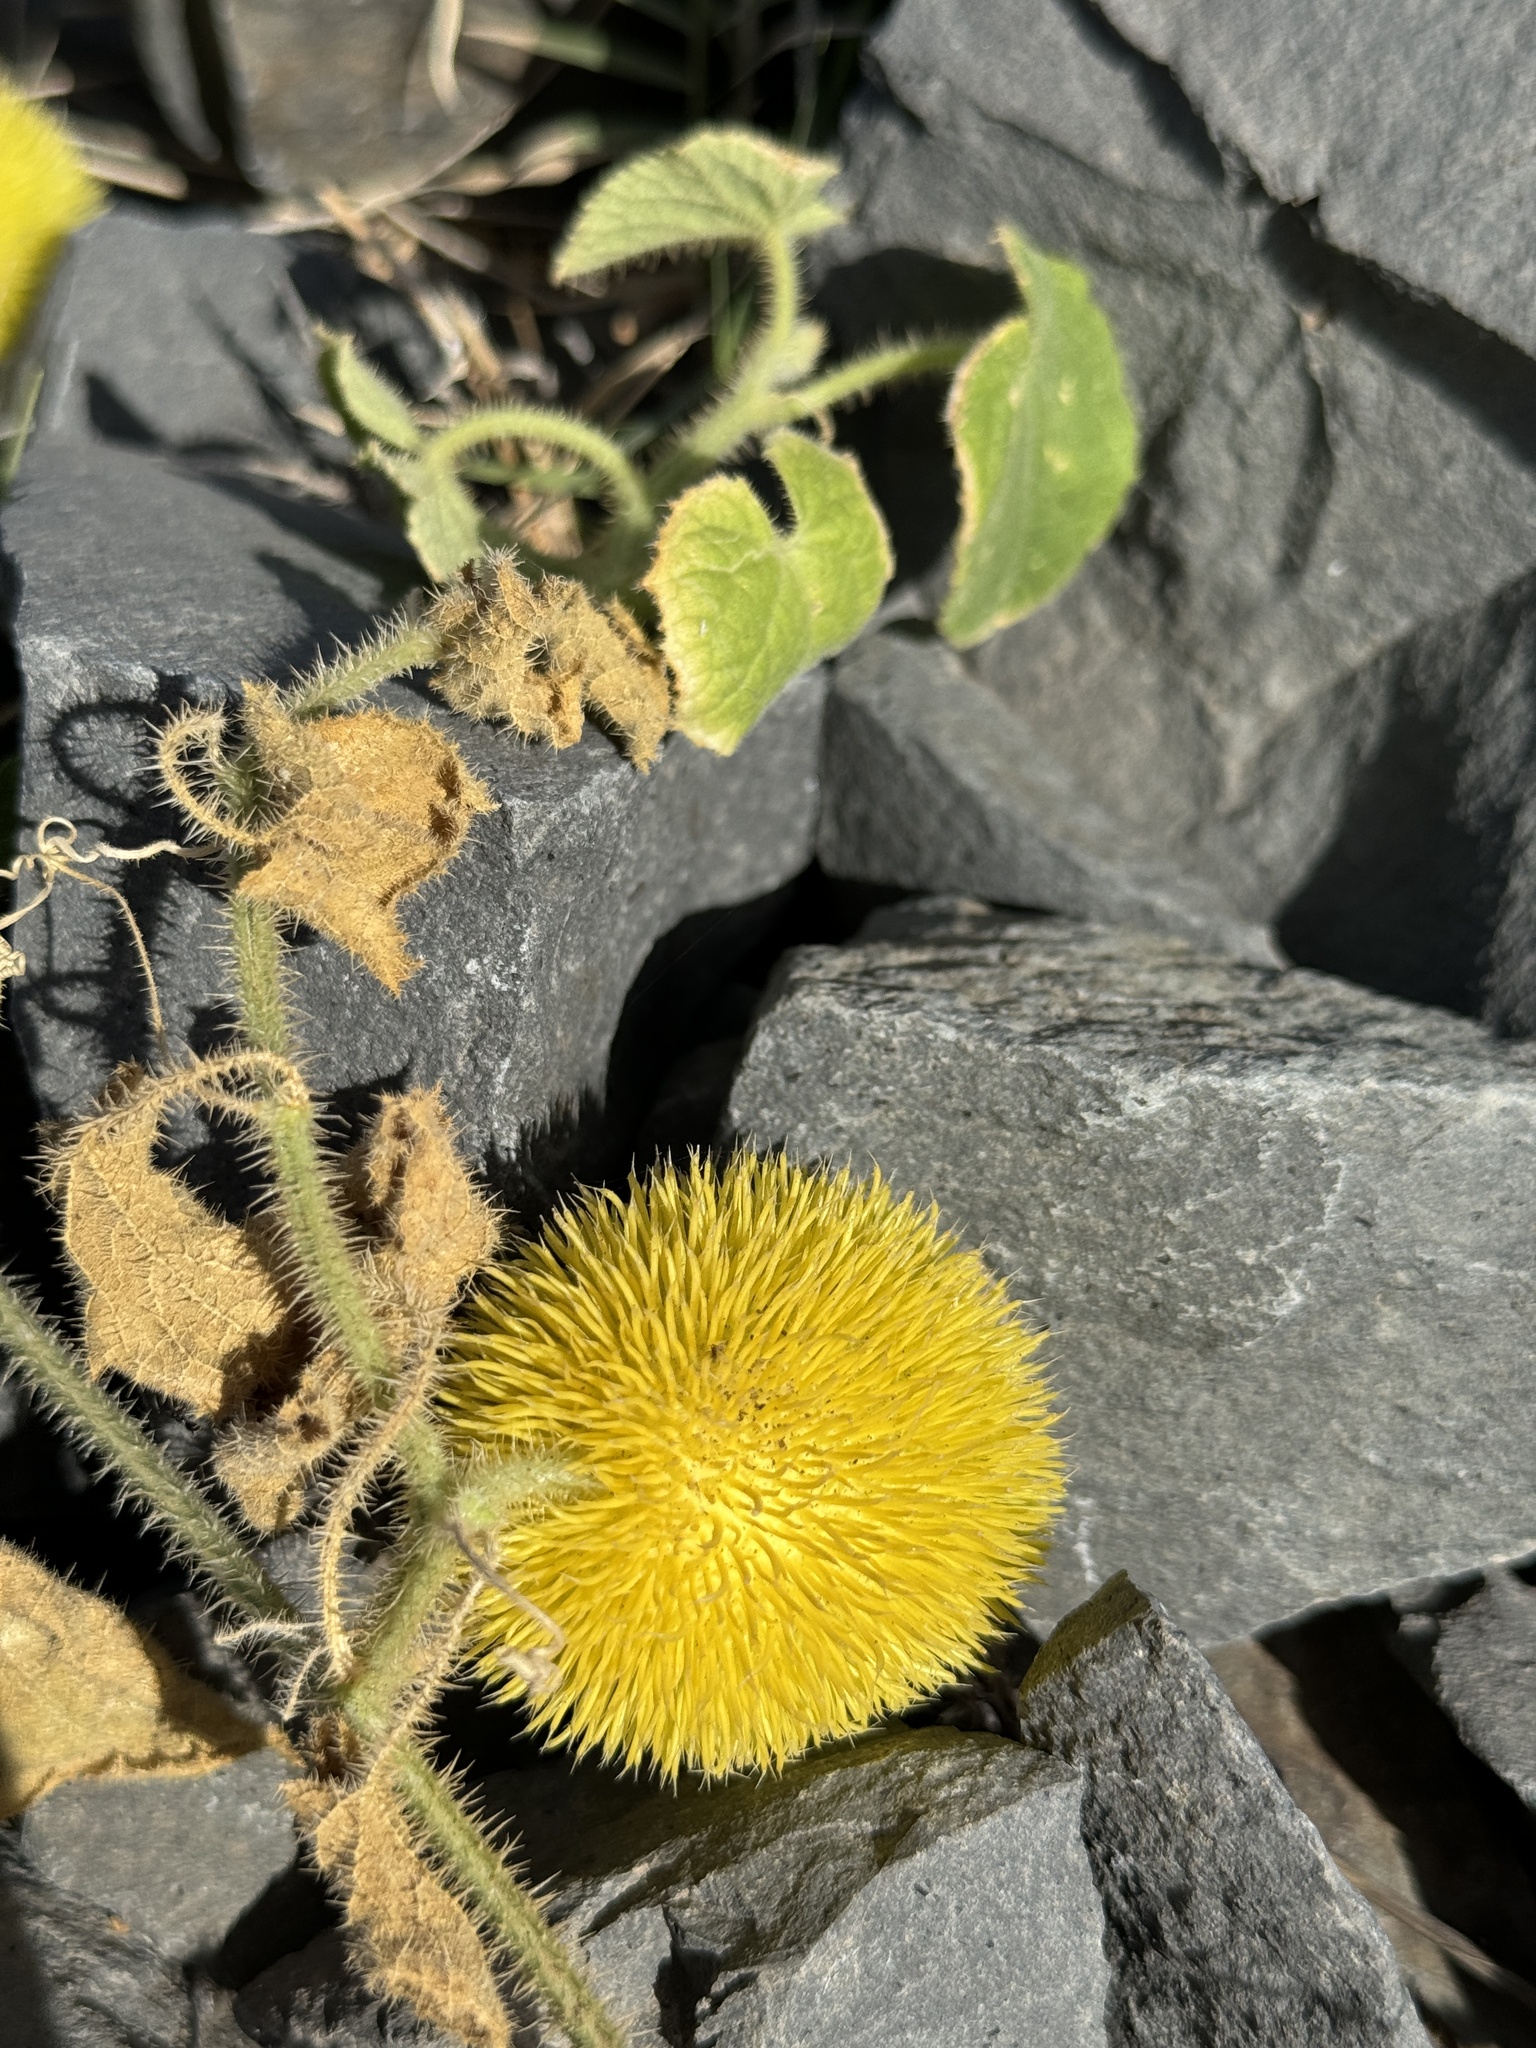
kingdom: Plantae
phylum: Tracheophyta
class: Magnoliopsida
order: Cucurbitales
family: Cucurbitaceae
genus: Cucumis
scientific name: Cucumis dipsaceus
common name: Hedgehog gourd
